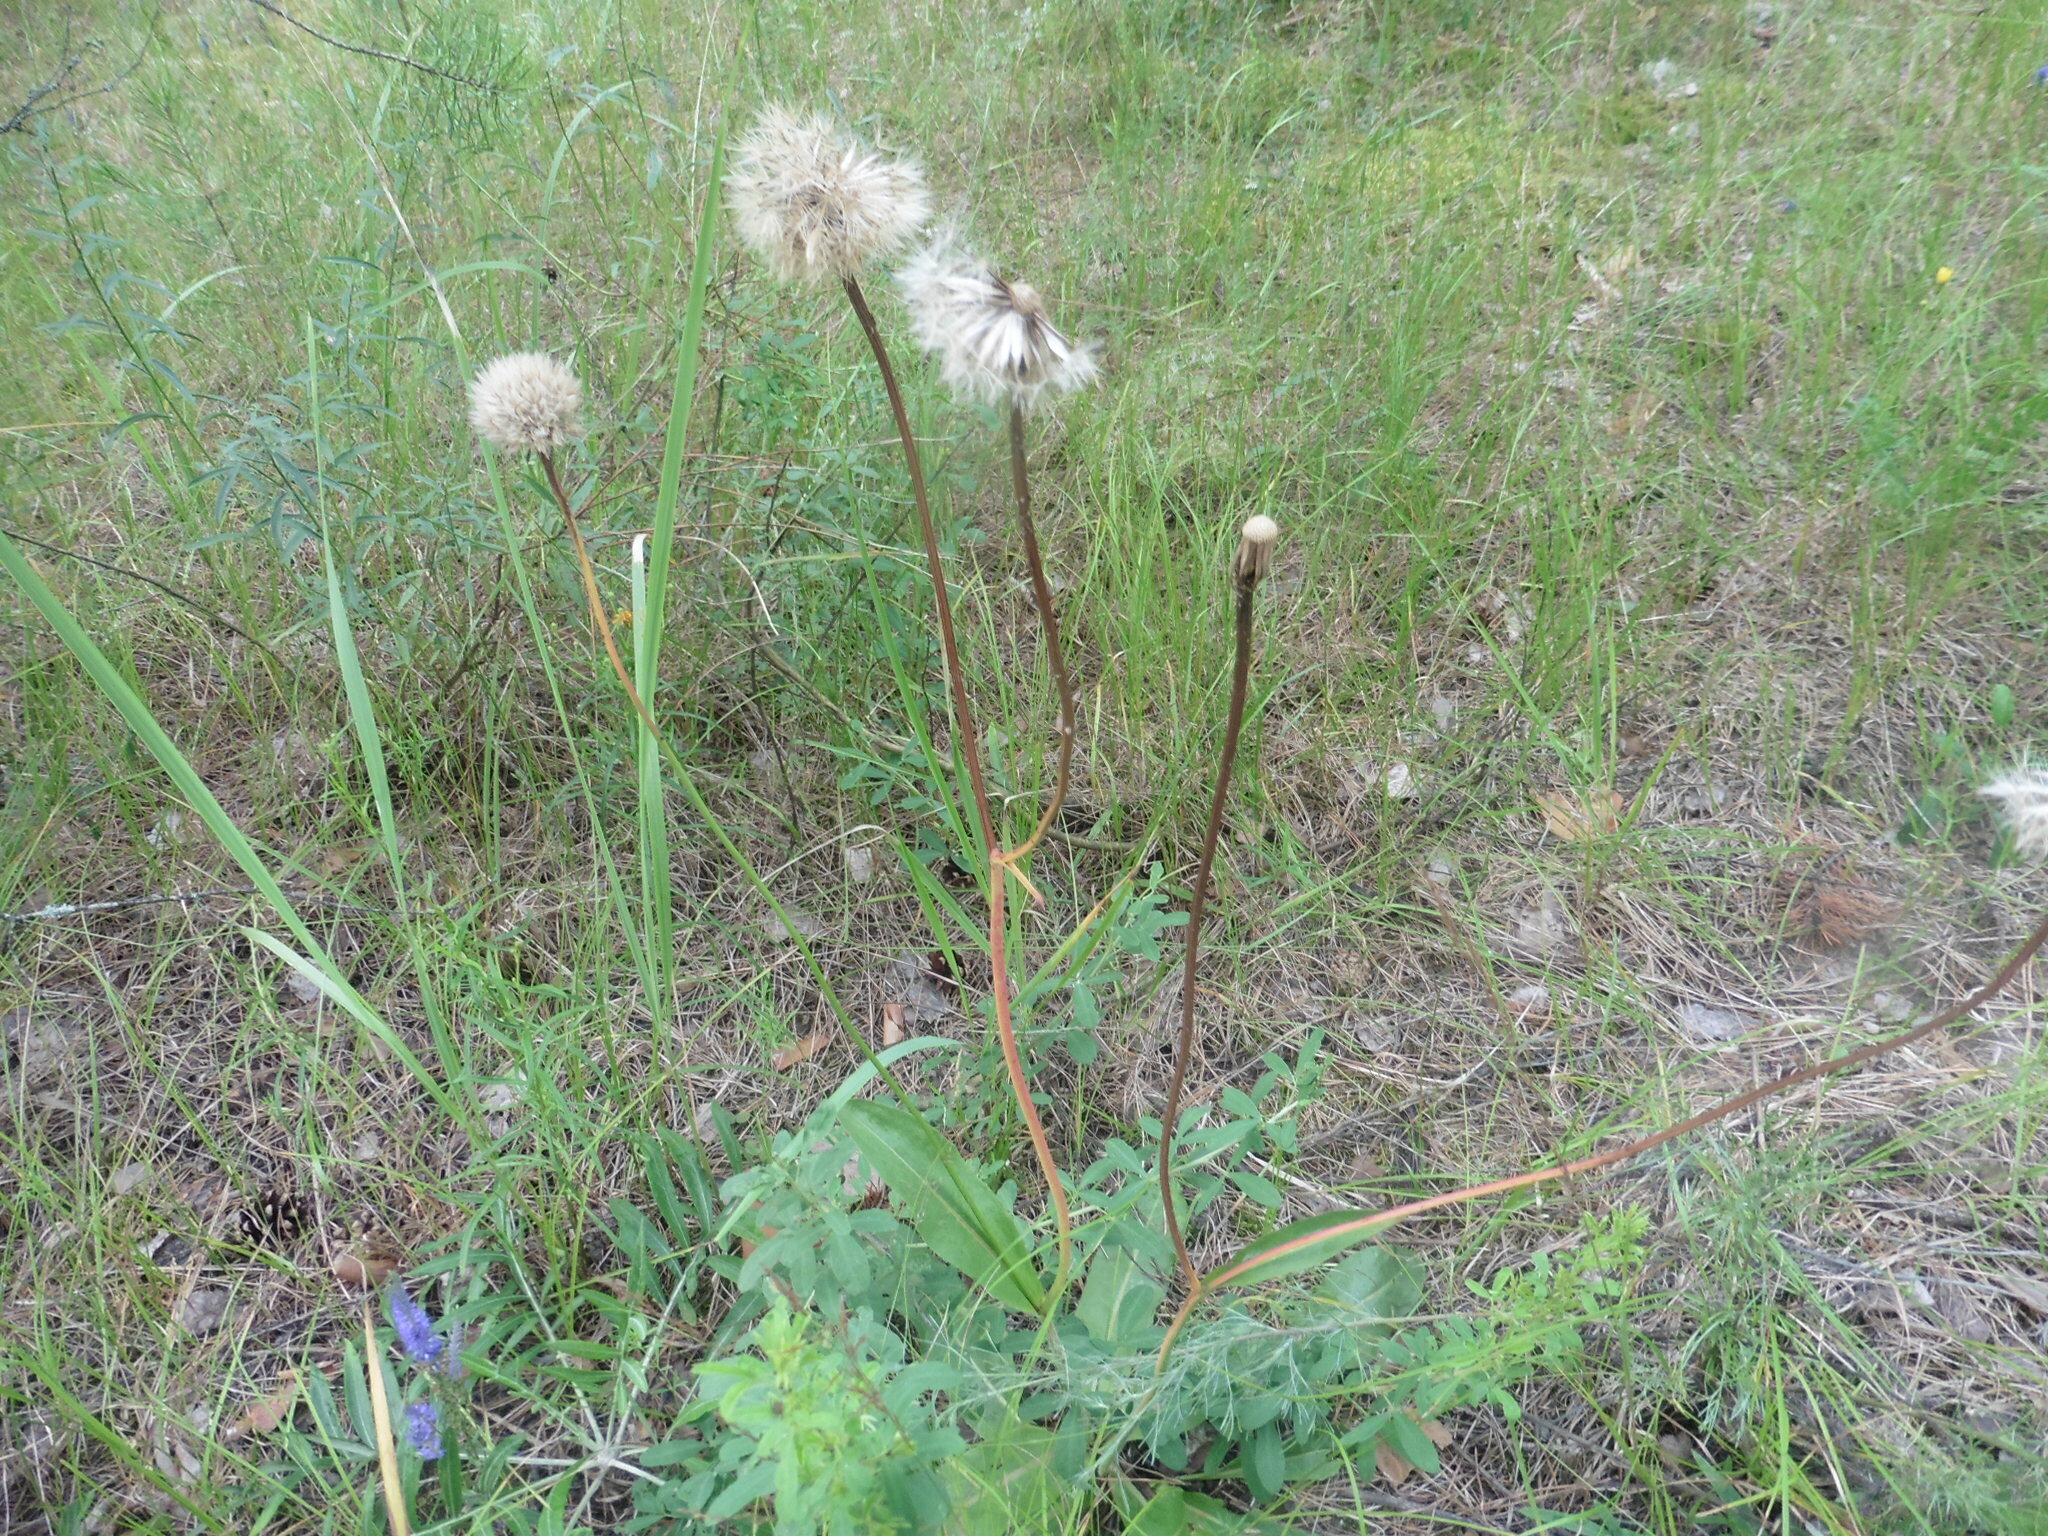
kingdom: Plantae
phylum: Tracheophyta
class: Magnoliopsida
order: Asterales
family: Asteraceae
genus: Trommsdorffia
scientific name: Trommsdorffia maculata
